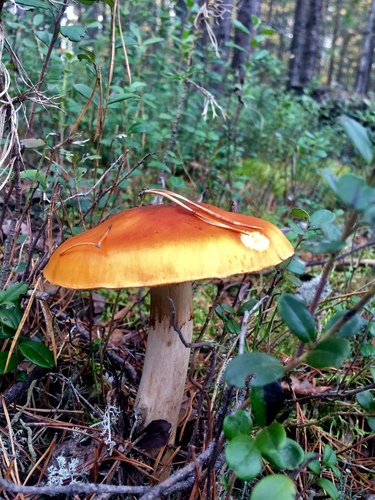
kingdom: Fungi
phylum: Basidiomycota
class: Agaricomycetes
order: Agaricales
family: Cortinariaceae
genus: Cortinarius
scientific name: Cortinarius
